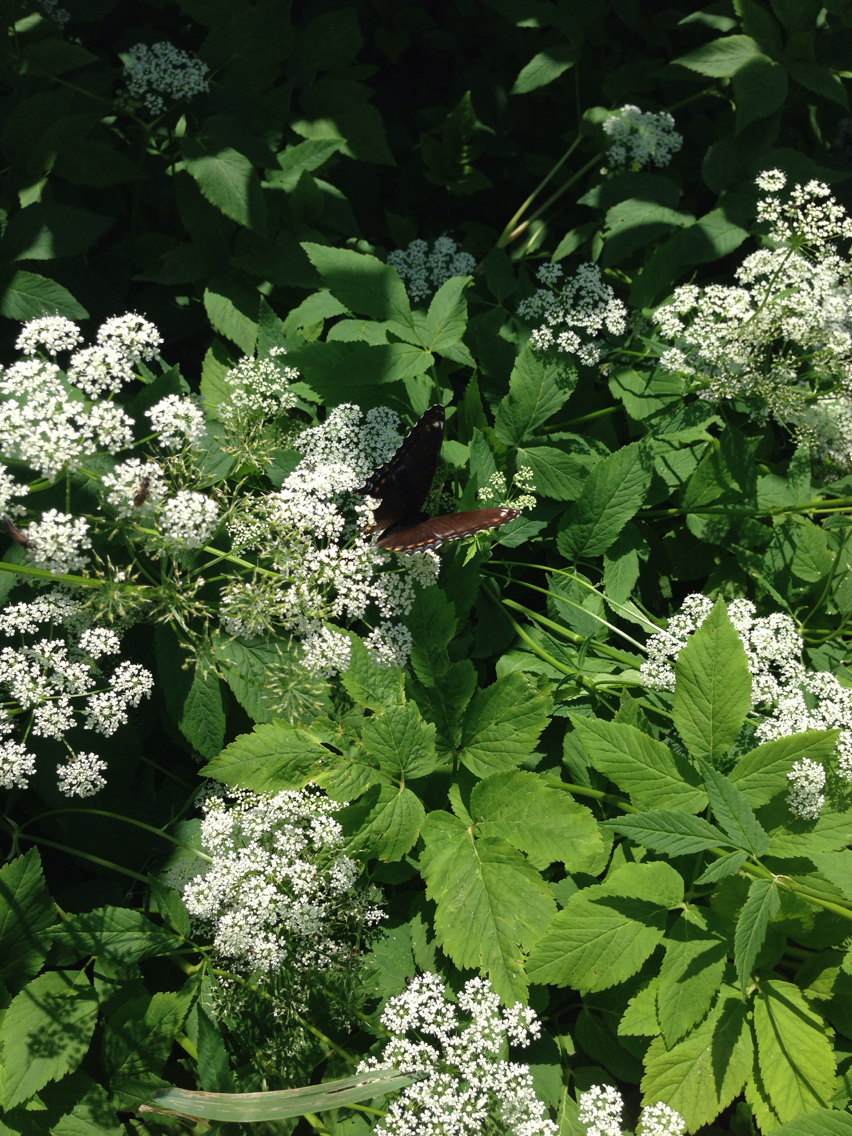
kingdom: Animalia
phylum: Arthropoda
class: Insecta
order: Lepidoptera
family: Nymphalidae
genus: Limenitis
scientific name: Limenitis arthemis
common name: Red-spotted admiral
